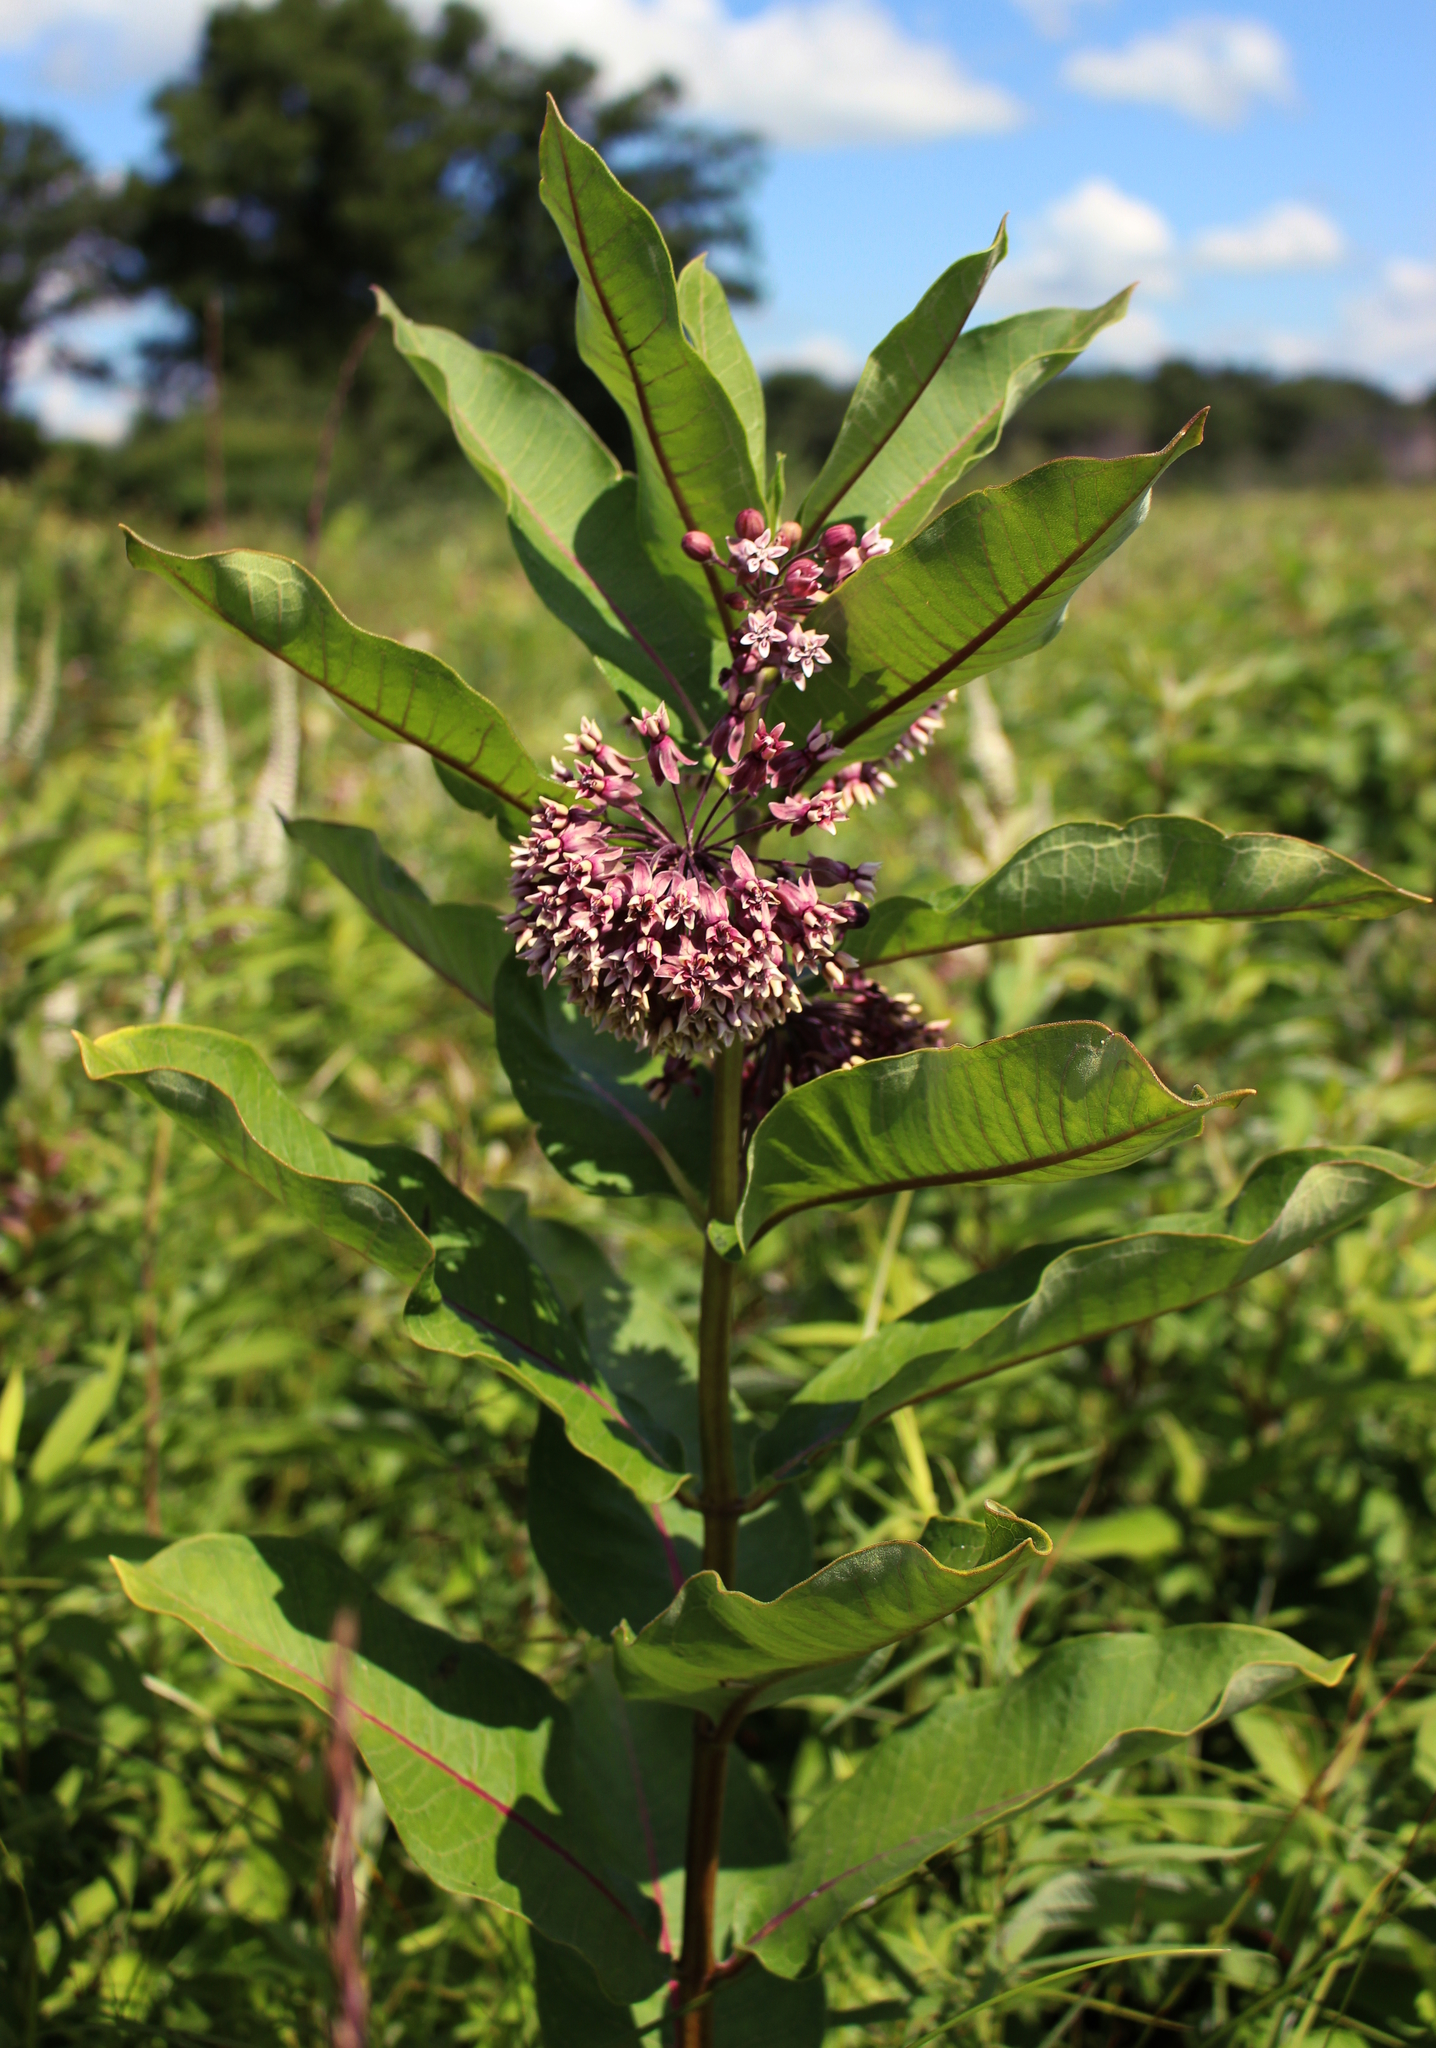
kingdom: Plantae
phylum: Tracheophyta
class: Magnoliopsida
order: Gentianales
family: Apocynaceae
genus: Asclepias
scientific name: Asclepias syriaca
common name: Common milkweed
